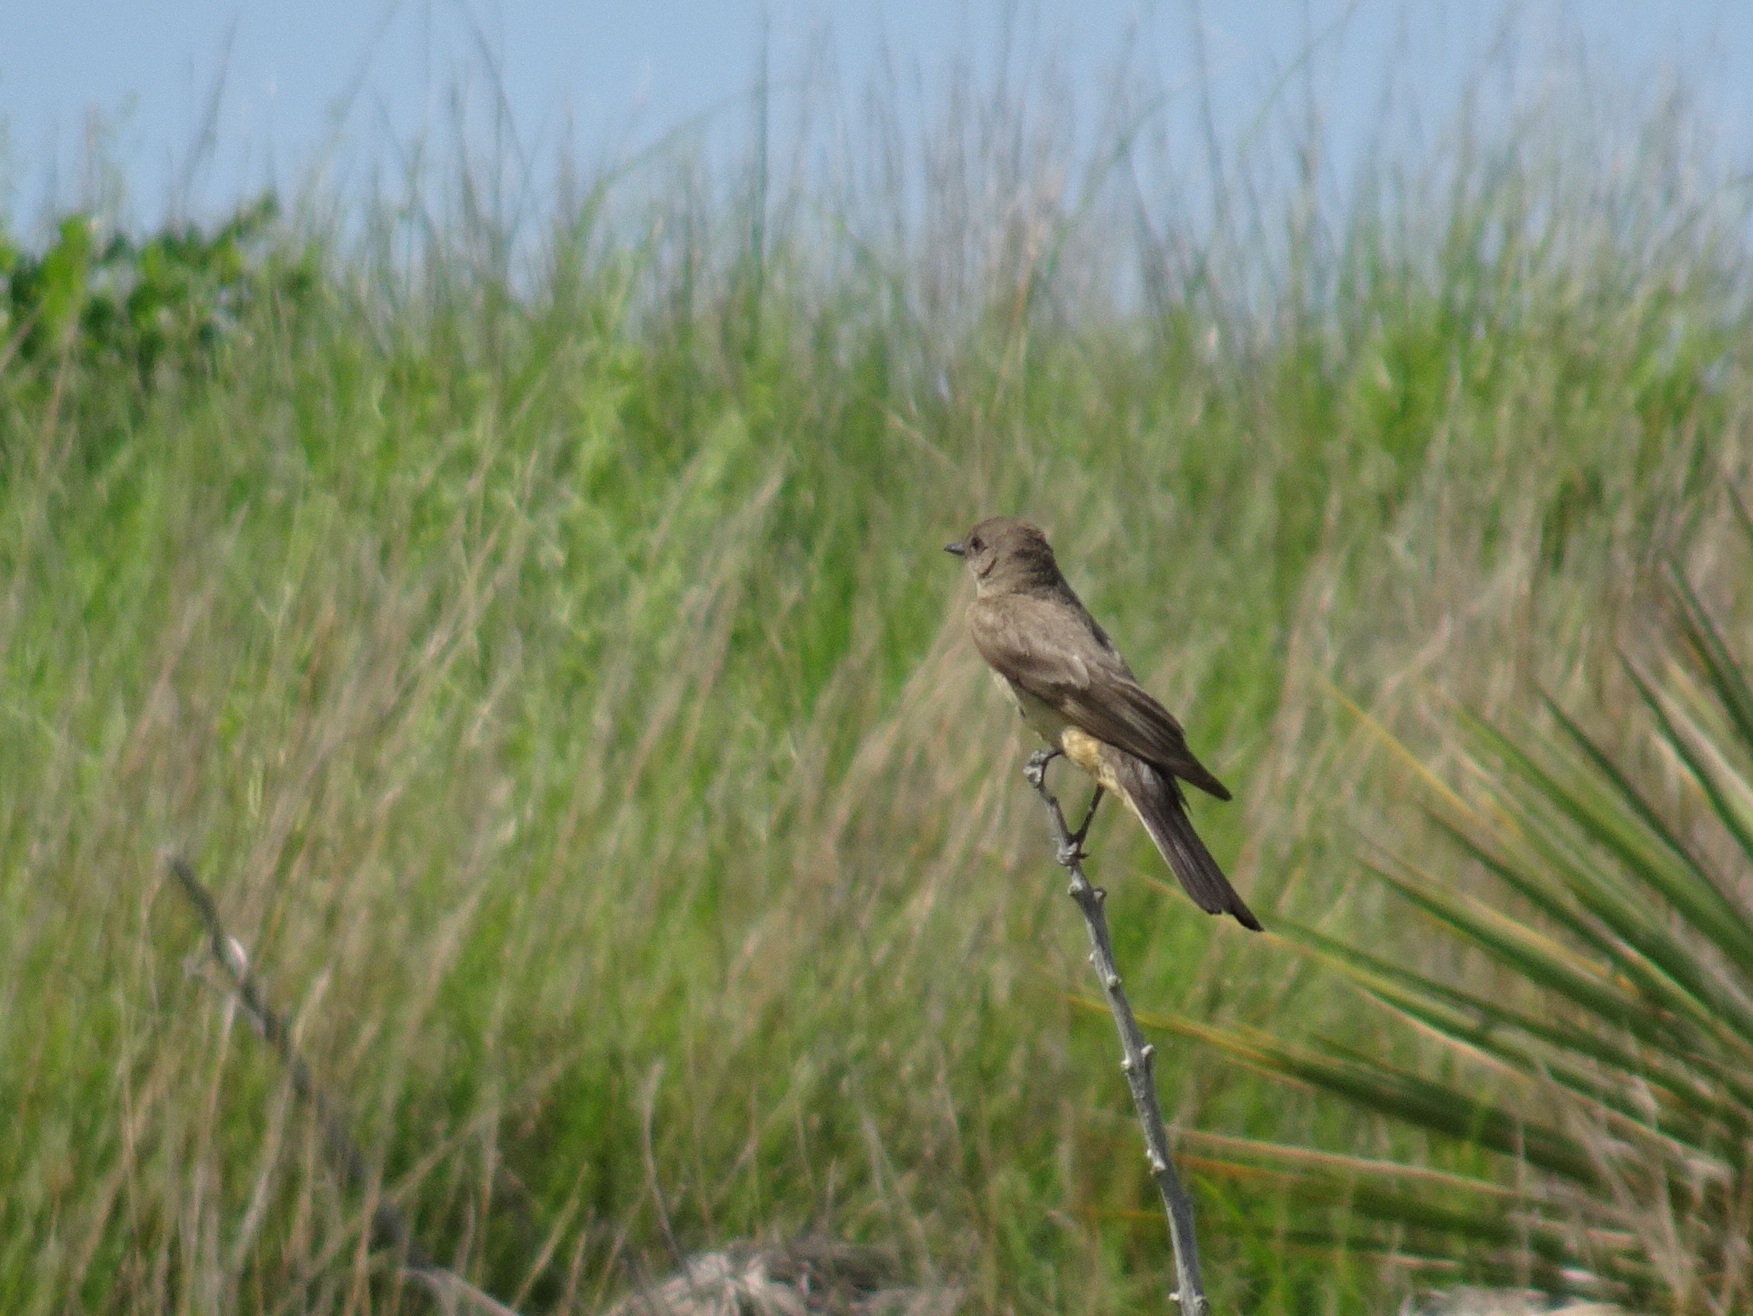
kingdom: Animalia
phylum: Chordata
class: Aves
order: Passeriformes
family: Tyrannidae
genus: Sayornis
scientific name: Sayornis saya
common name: Say's phoebe
